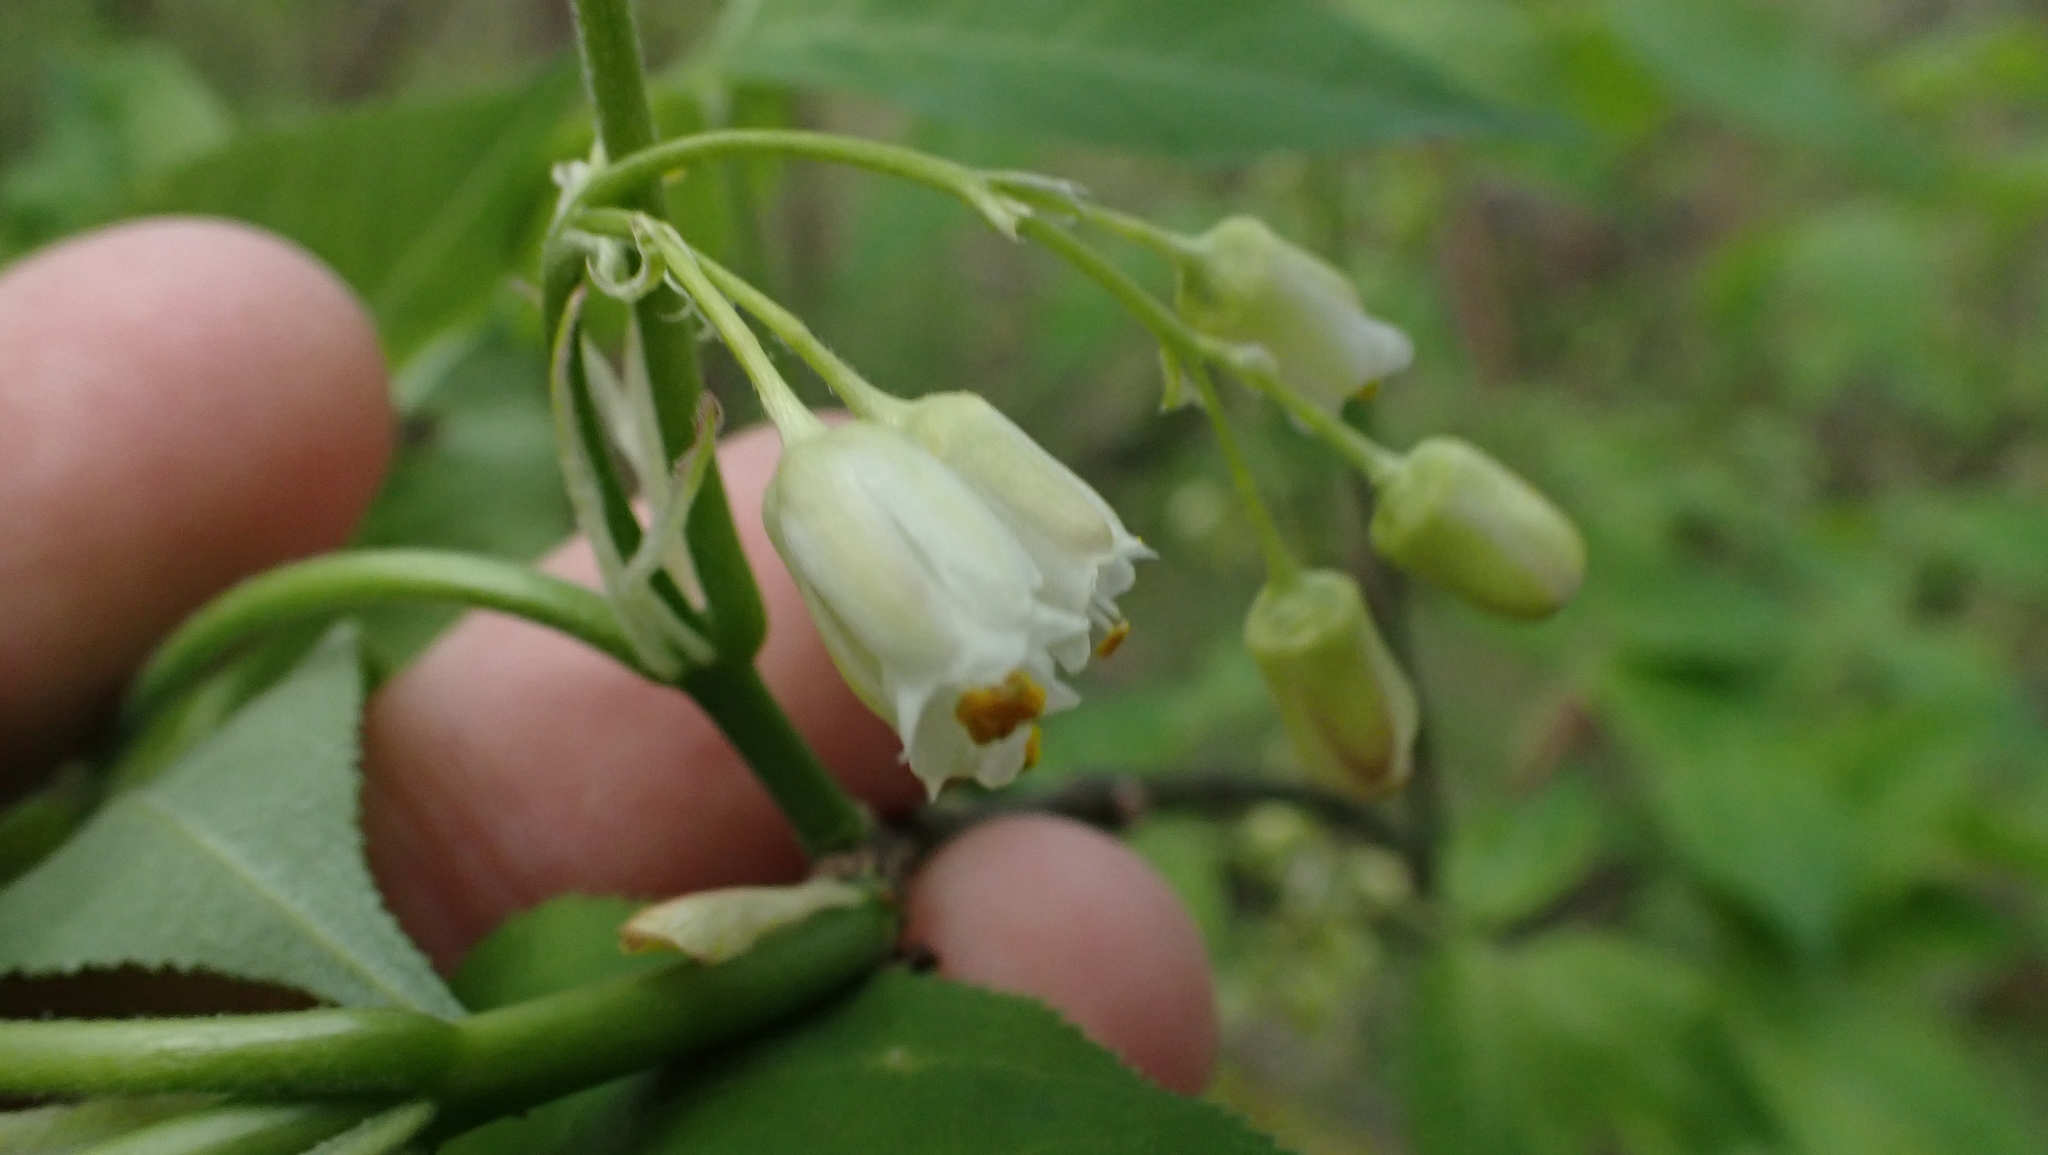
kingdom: Plantae
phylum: Tracheophyta
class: Magnoliopsida
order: Crossosomatales
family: Staphyleaceae
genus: Staphylea
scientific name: Staphylea trifolia
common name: American bladdernut
